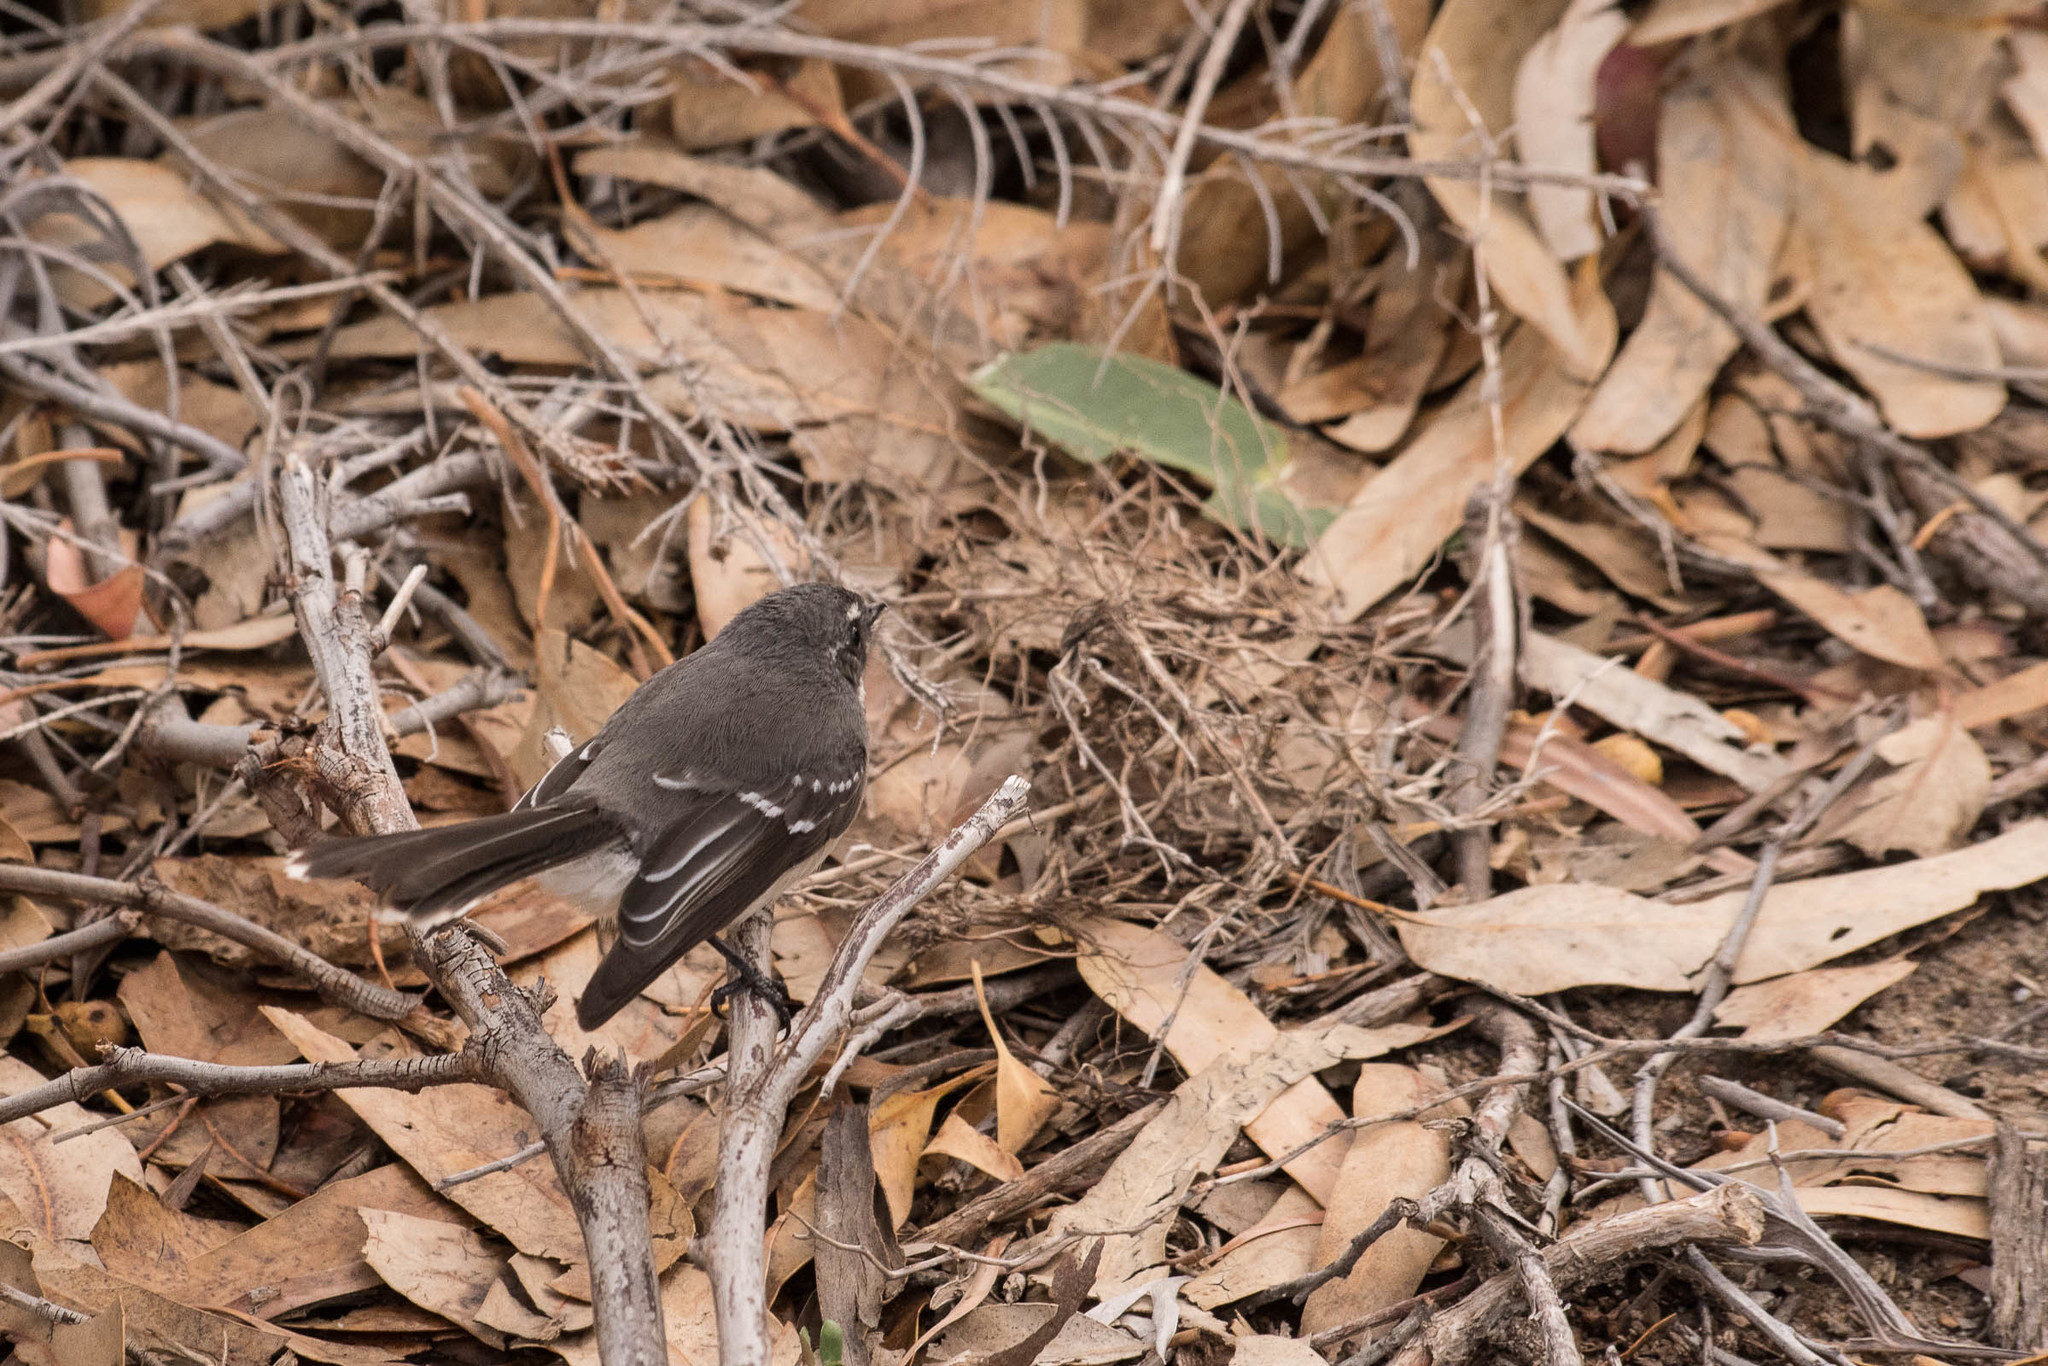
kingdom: Animalia
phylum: Chordata
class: Aves
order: Passeriformes
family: Rhipiduridae
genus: Rhipidura
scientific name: Rhipidura albiscapa
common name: Grey fantail
